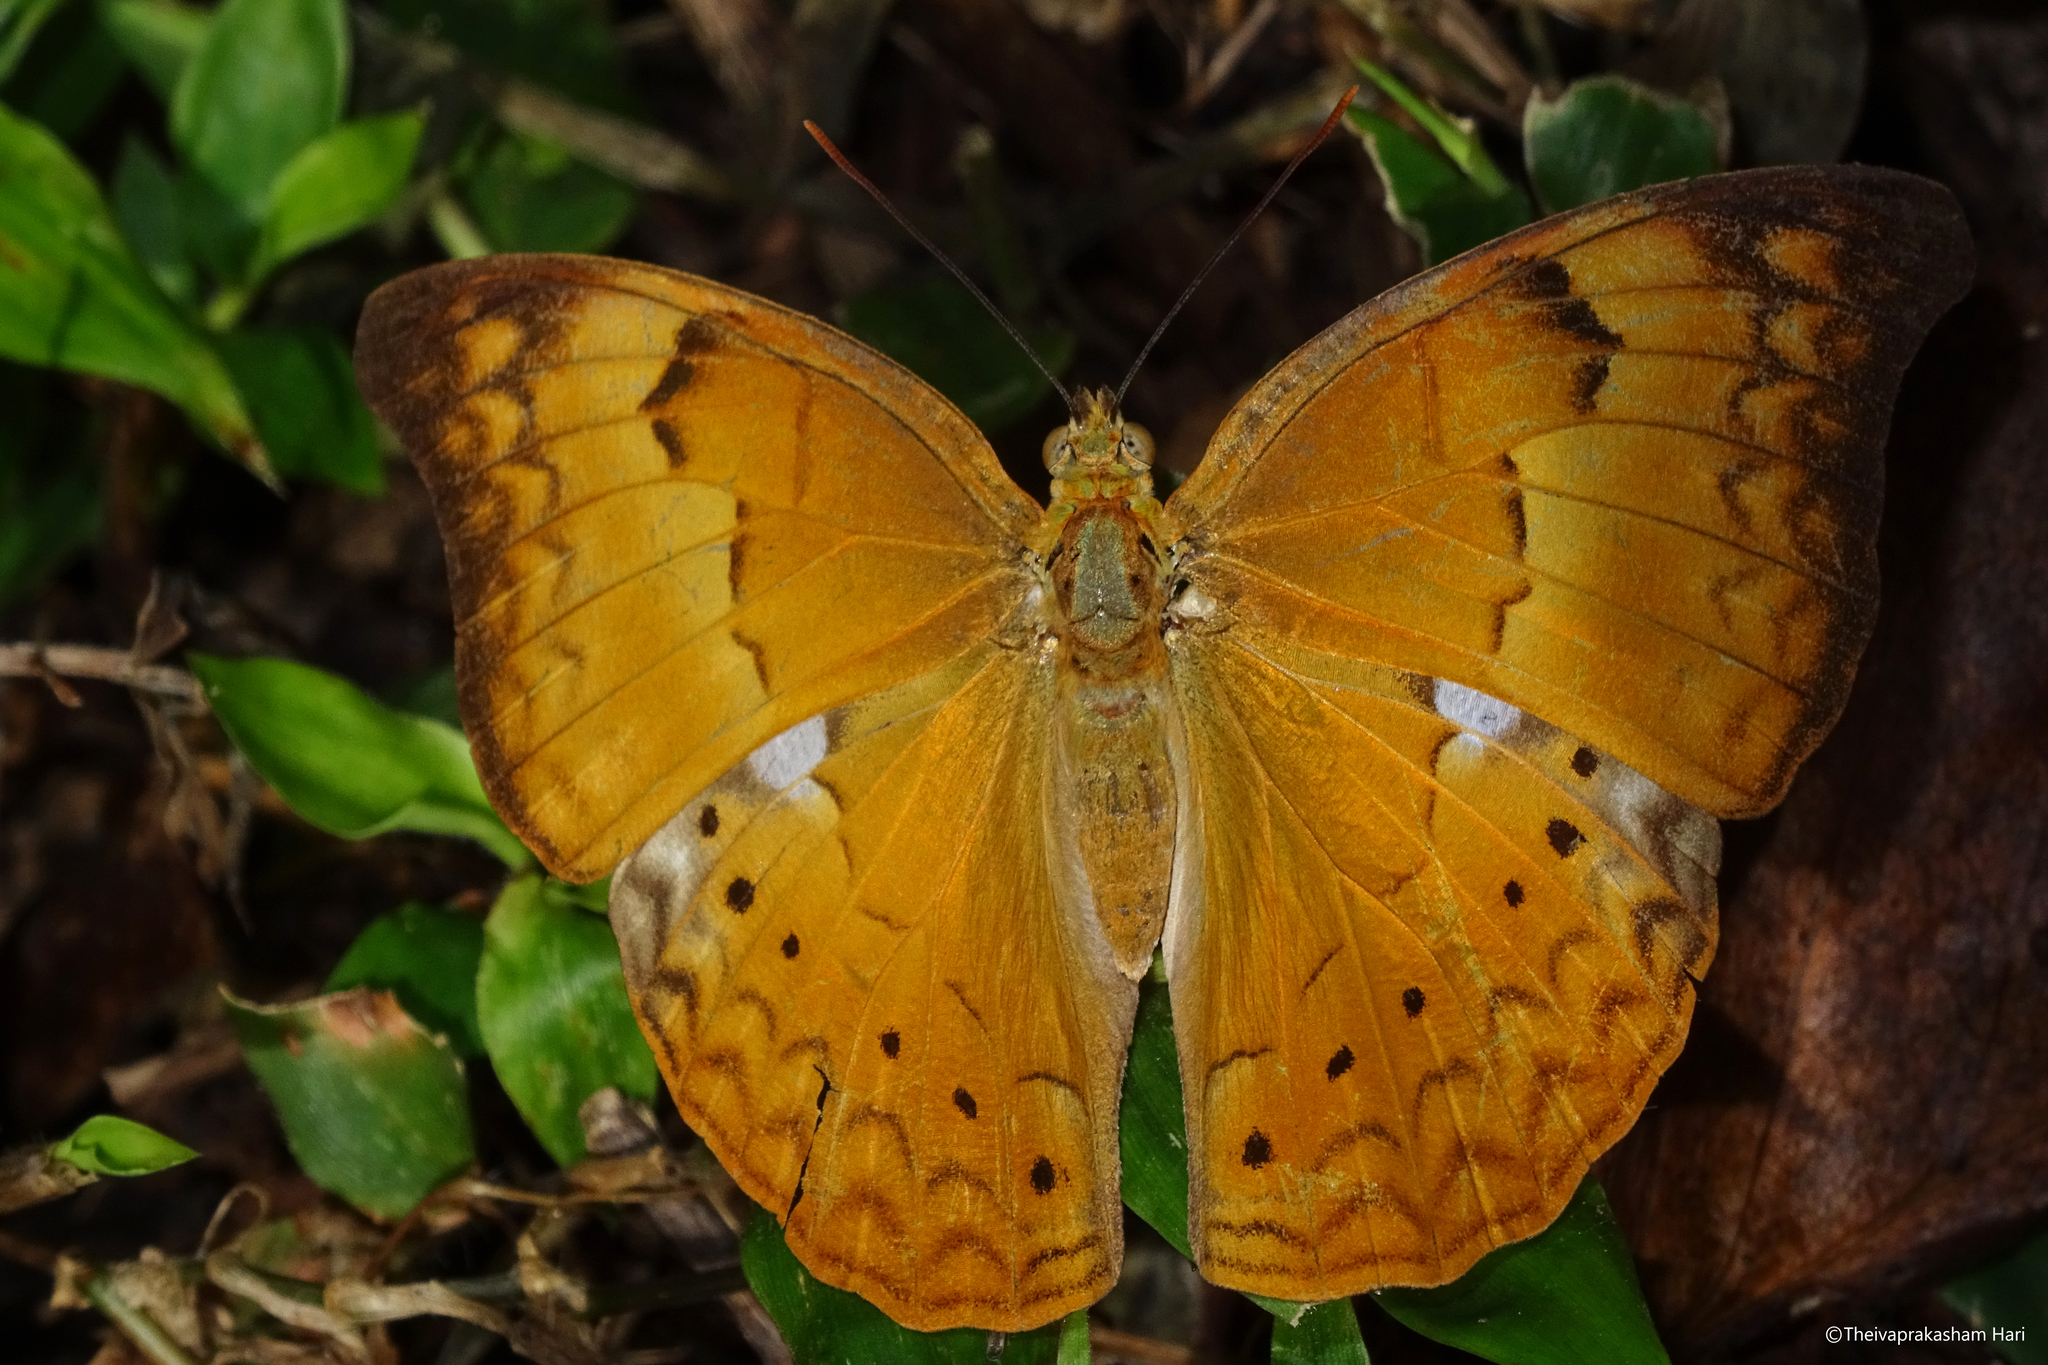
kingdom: Animalia
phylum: Arthropoda
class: Insecta
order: Lepidoptera
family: Nymphalidae
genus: Cirrochroa
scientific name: Cirrochroa thais
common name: Tamil yeoman
